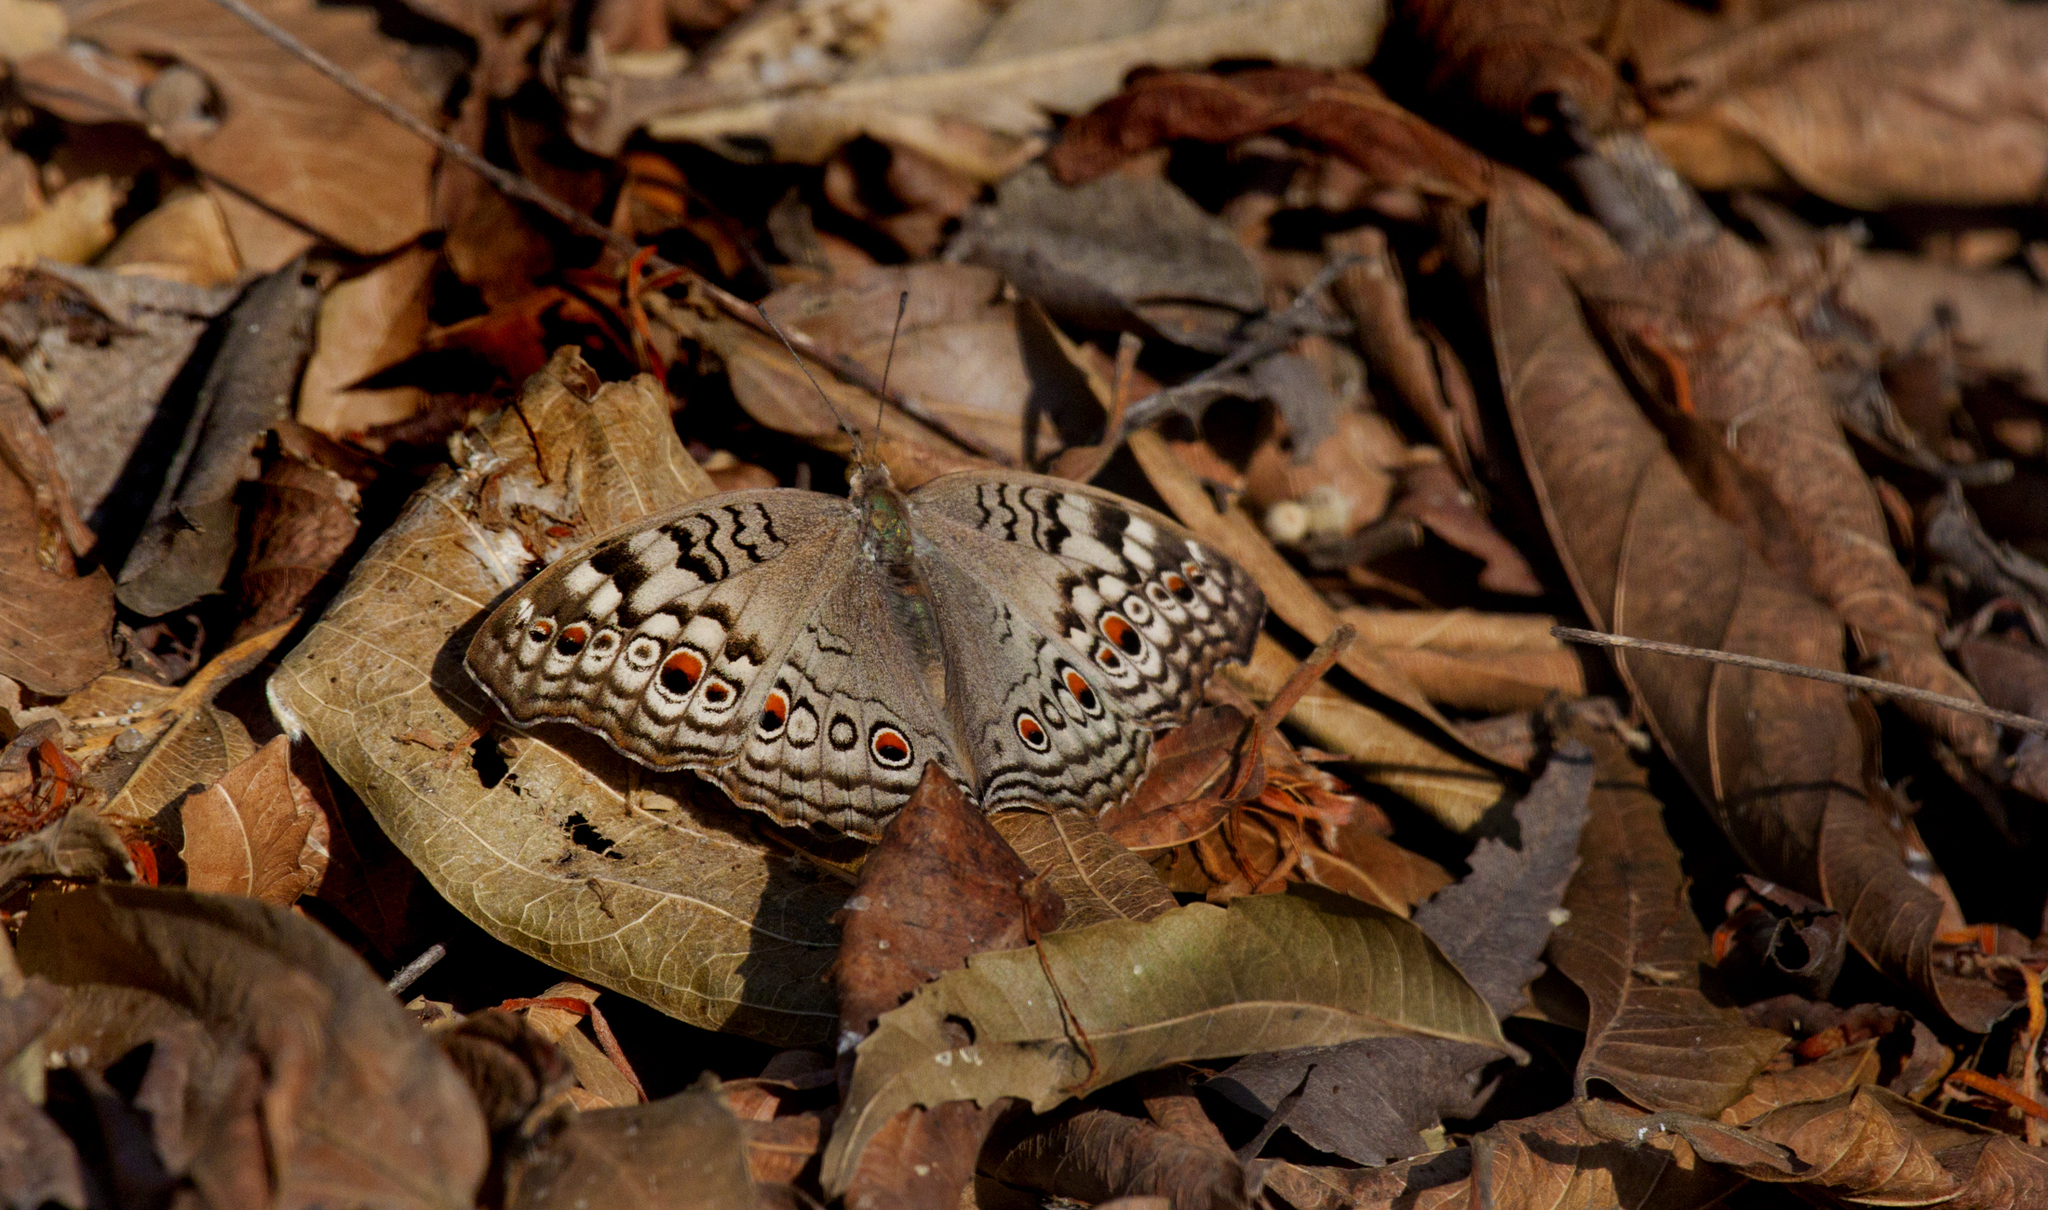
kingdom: Animalia
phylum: Arthropoda
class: Insecta
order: Lepidoptera
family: Nymphalidae
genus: Junonia
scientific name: Junonia atlites
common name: Grey pansy
